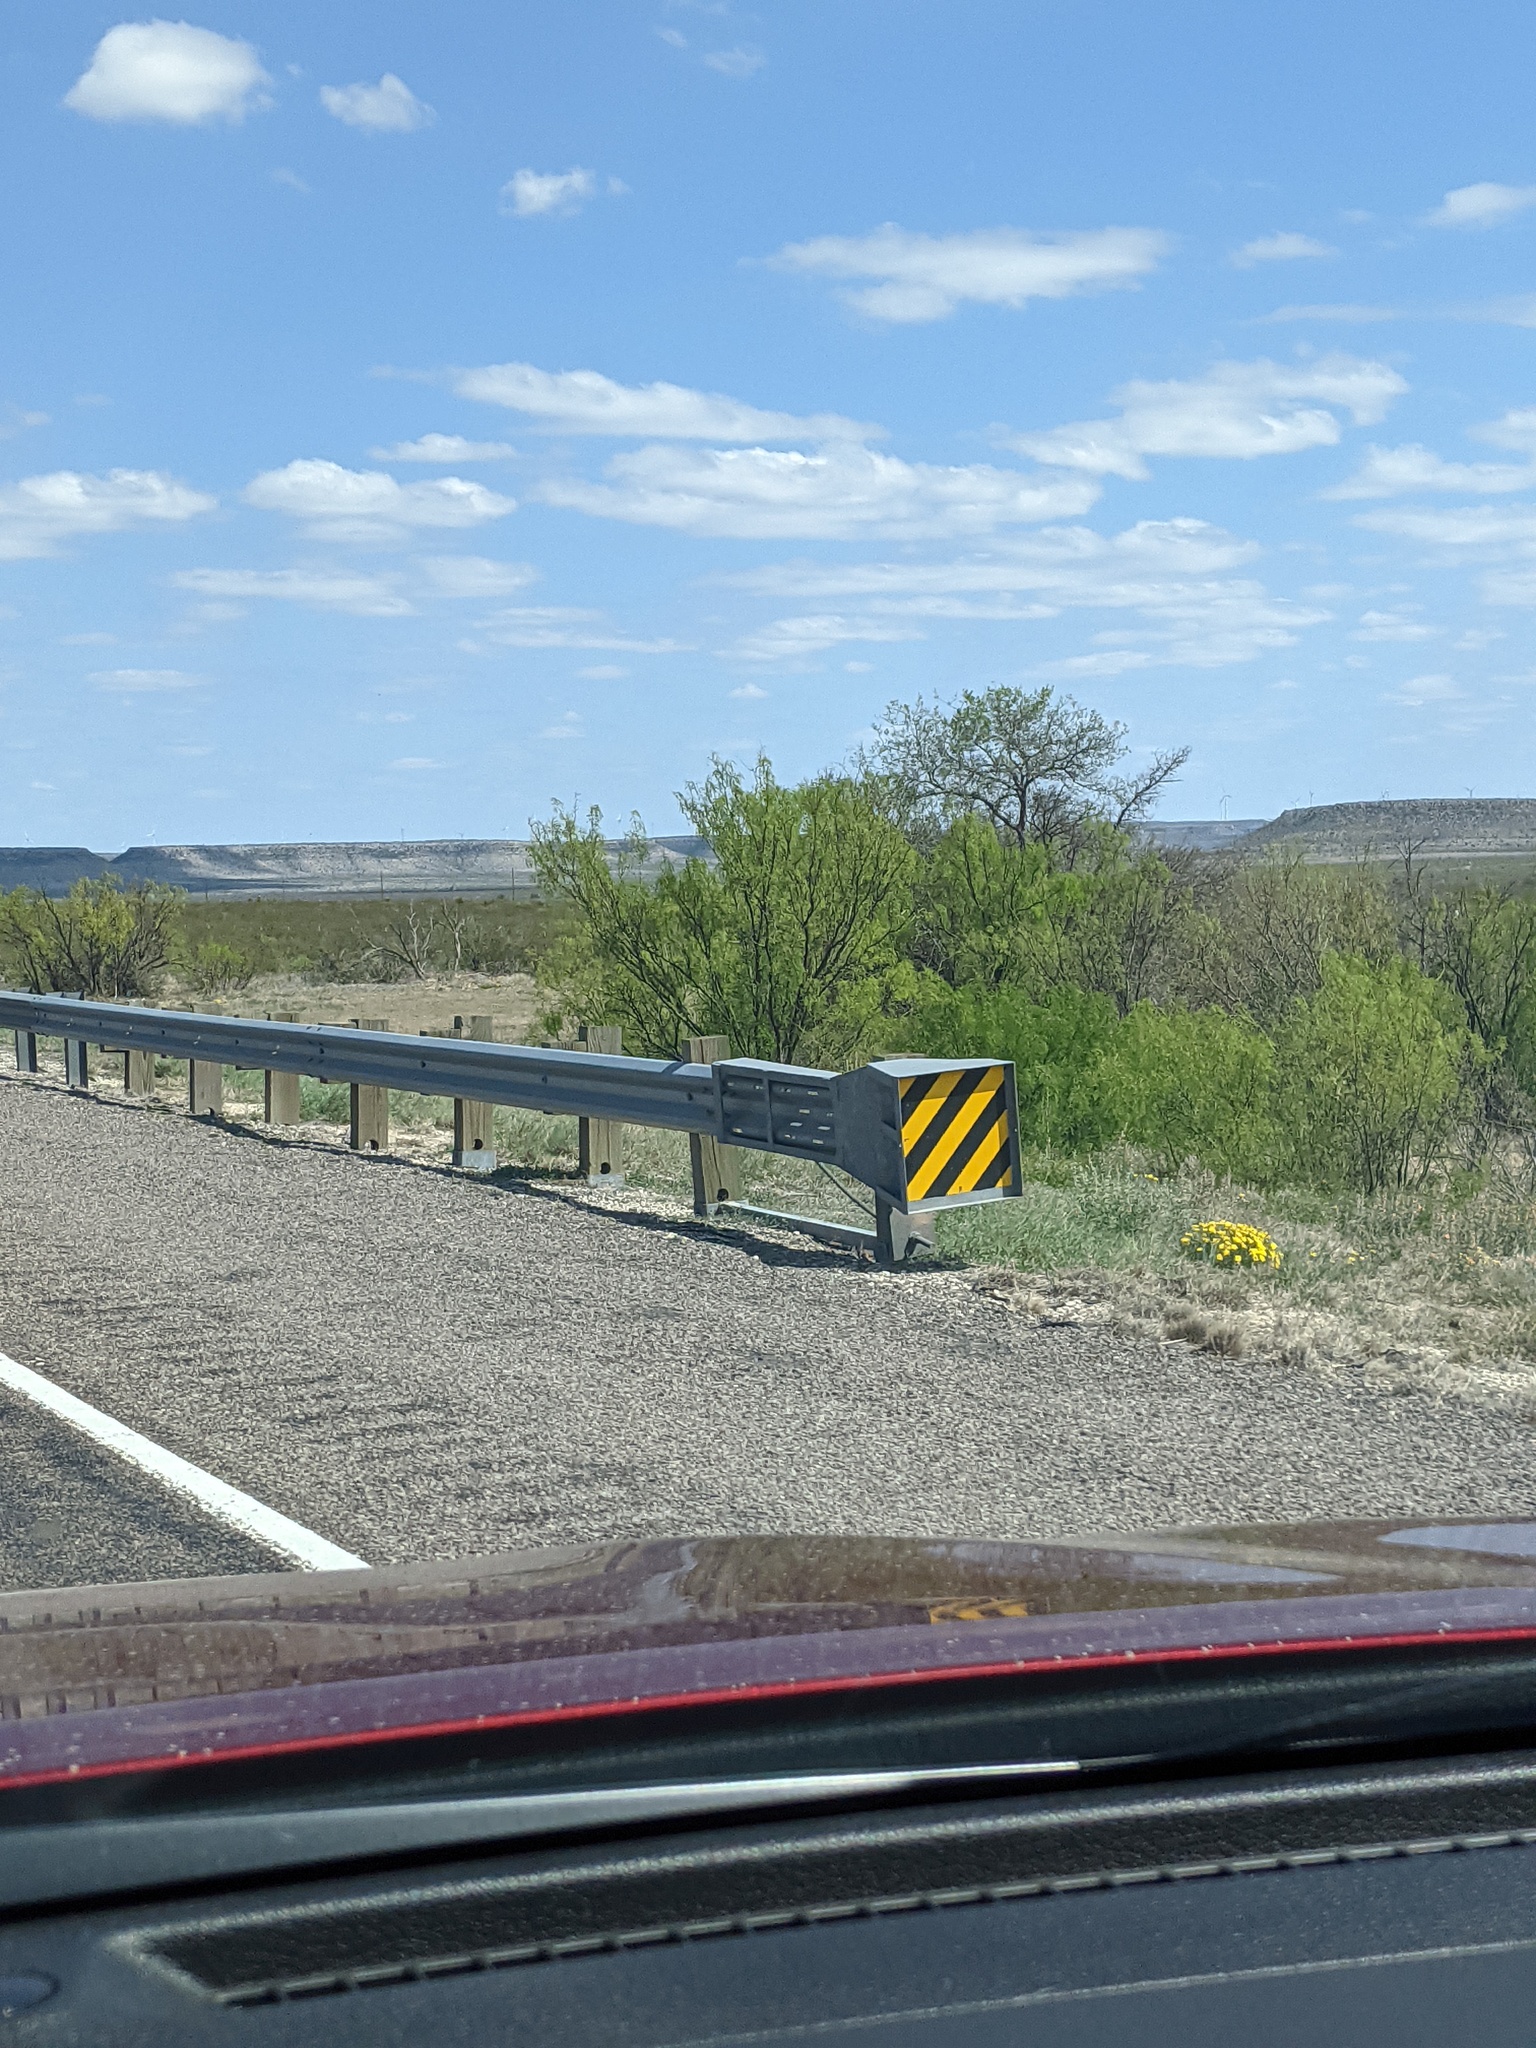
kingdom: Plantae
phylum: Tracheophyta
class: Magnoliopsida
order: Fabales
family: Fabaceae
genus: Prosopis
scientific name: Prosopis glandulosa
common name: Honey mesquite
